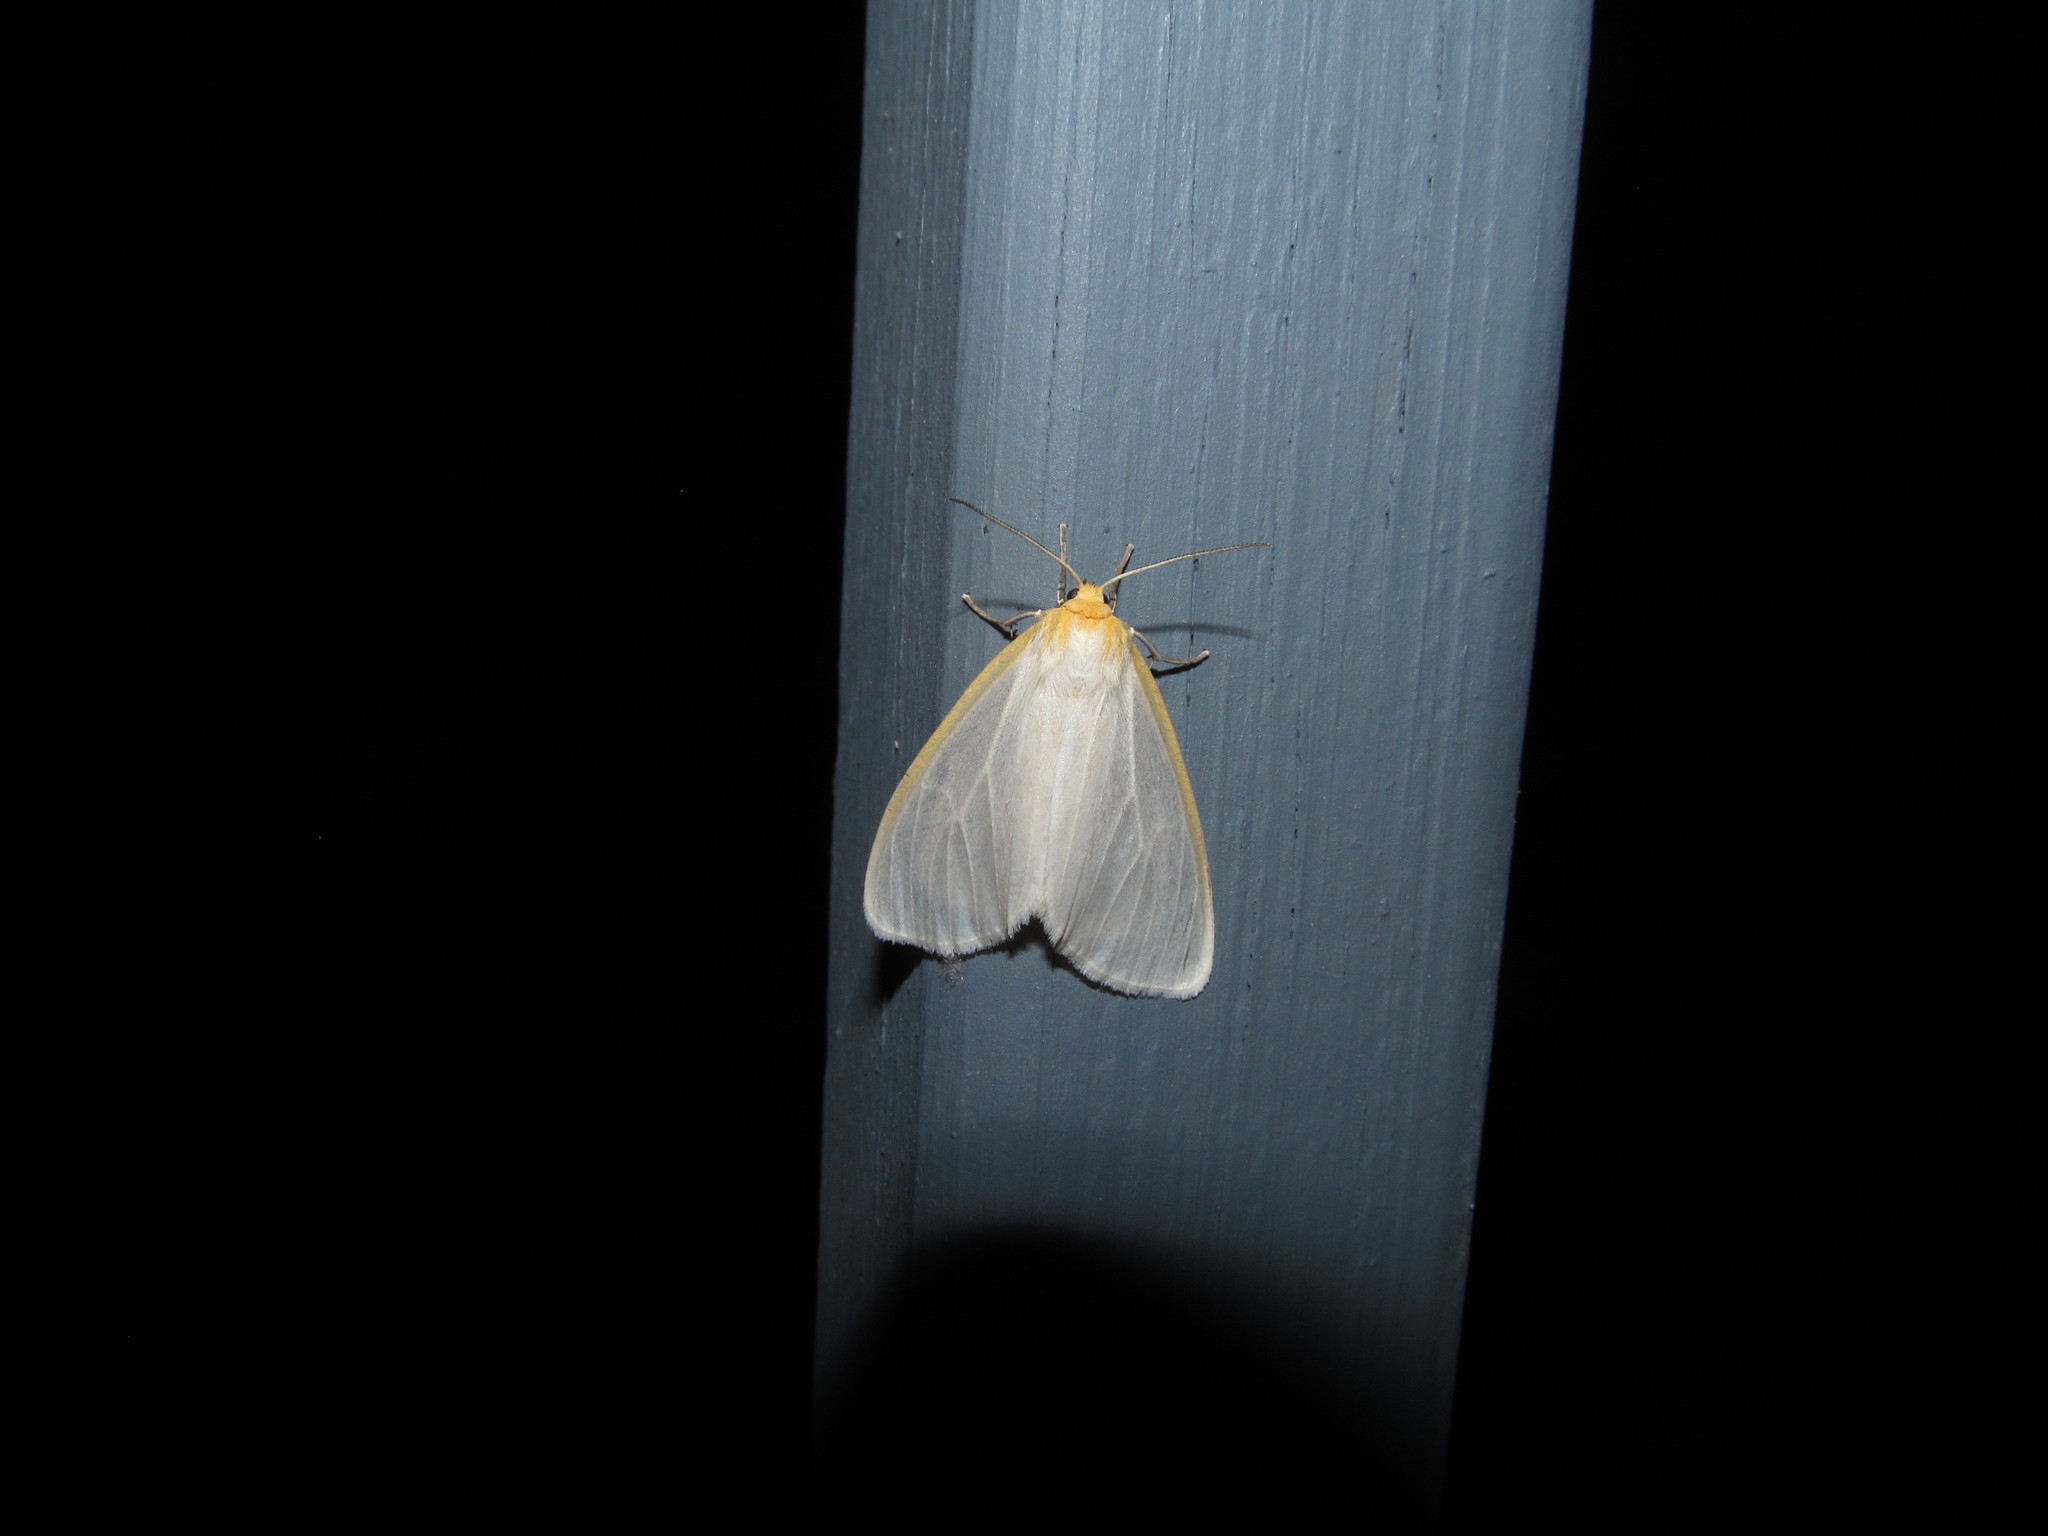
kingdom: Animalia
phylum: Arthropoda
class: Insecta
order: Lepidoptera
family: Erebidae
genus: Cycnia
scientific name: Cycnia tenera
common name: Delicate cycnia moth
